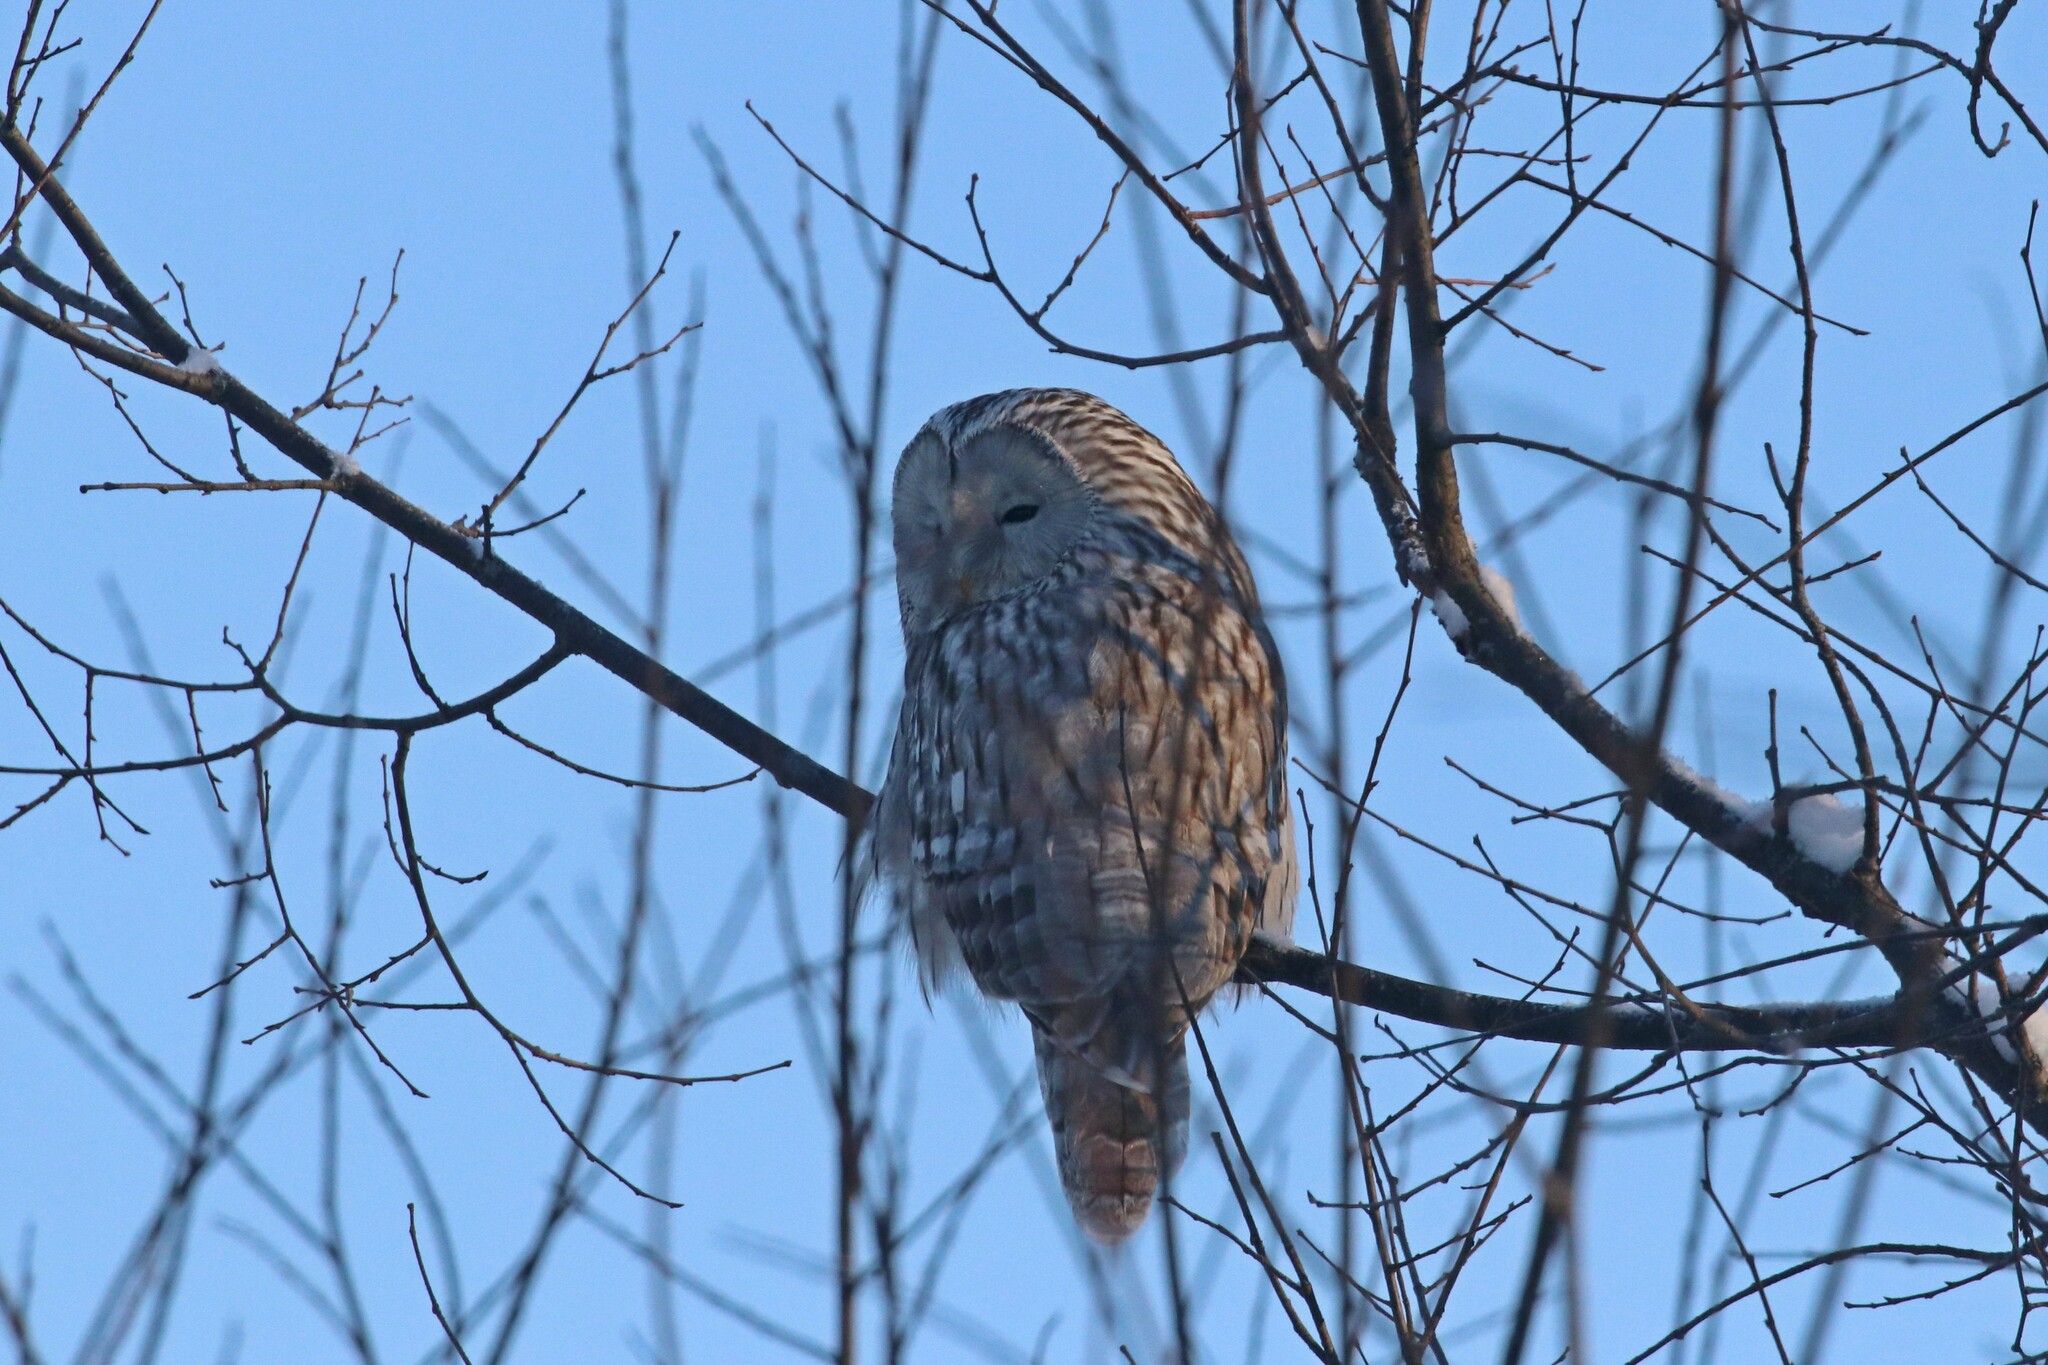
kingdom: Animalia
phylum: Chordata
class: Aves
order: Strigiformes
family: Strigidae
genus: Strix
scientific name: Strix uralensis
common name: Ural owl
